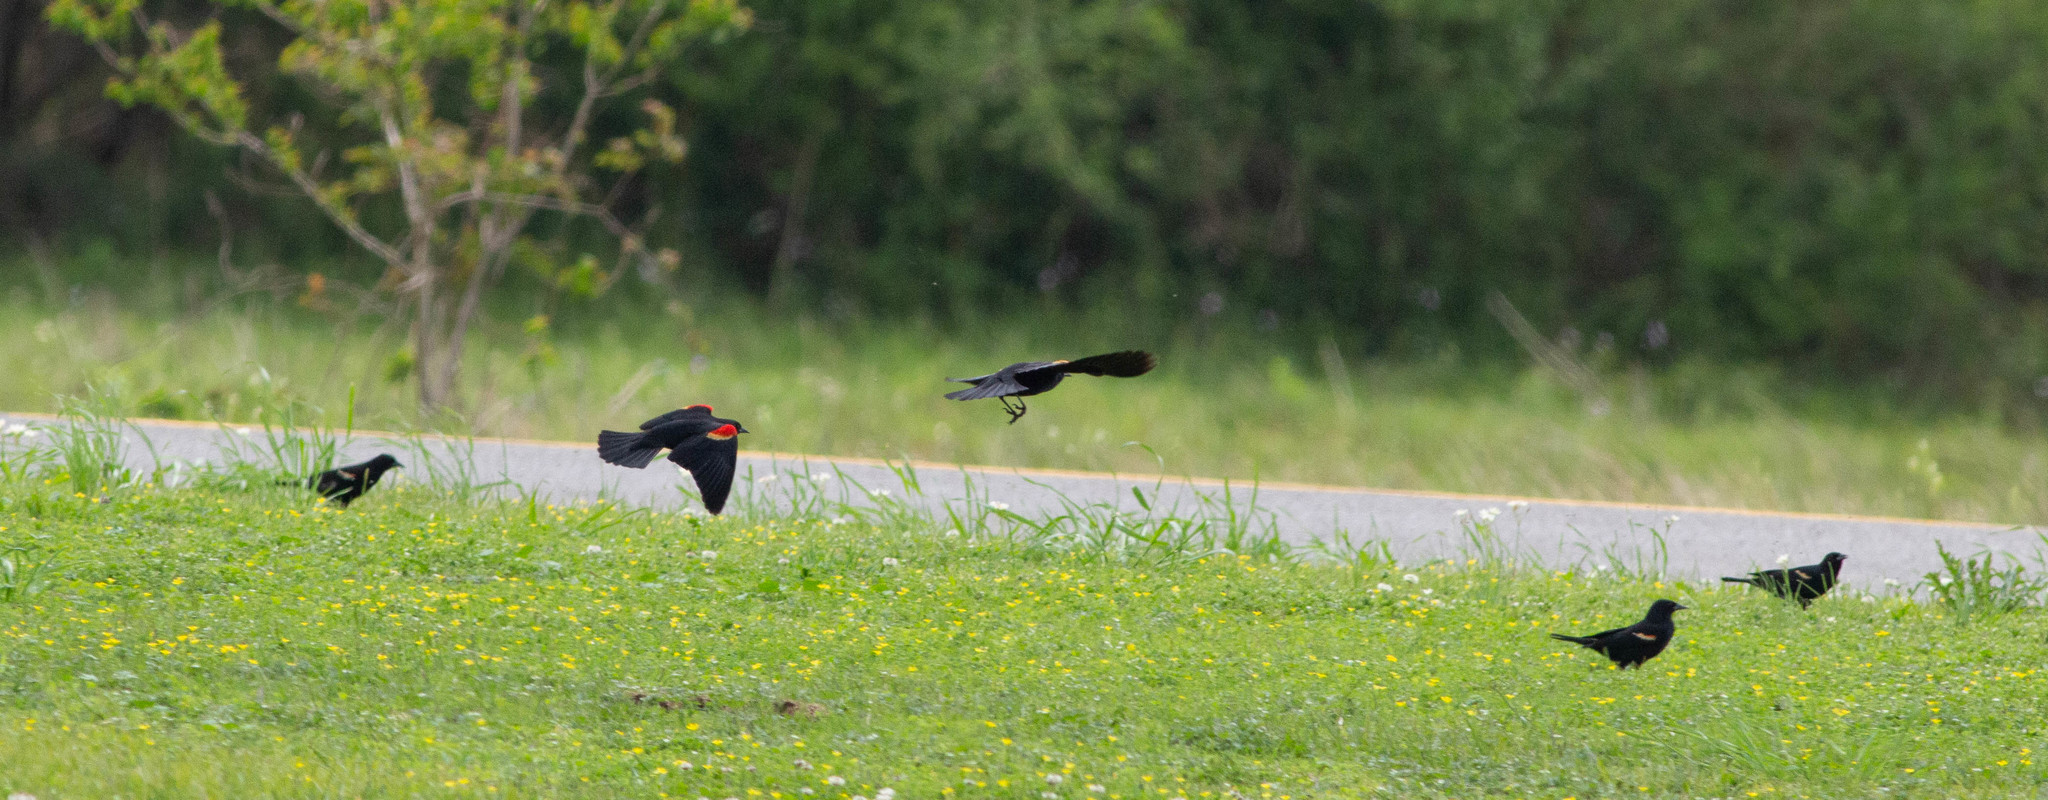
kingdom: Animalia
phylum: Chordata
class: Aves
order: Passeriformes
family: Icteridae
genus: Agelaius
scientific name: Agelaius phoeniceus
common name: Red-winged blackbird
